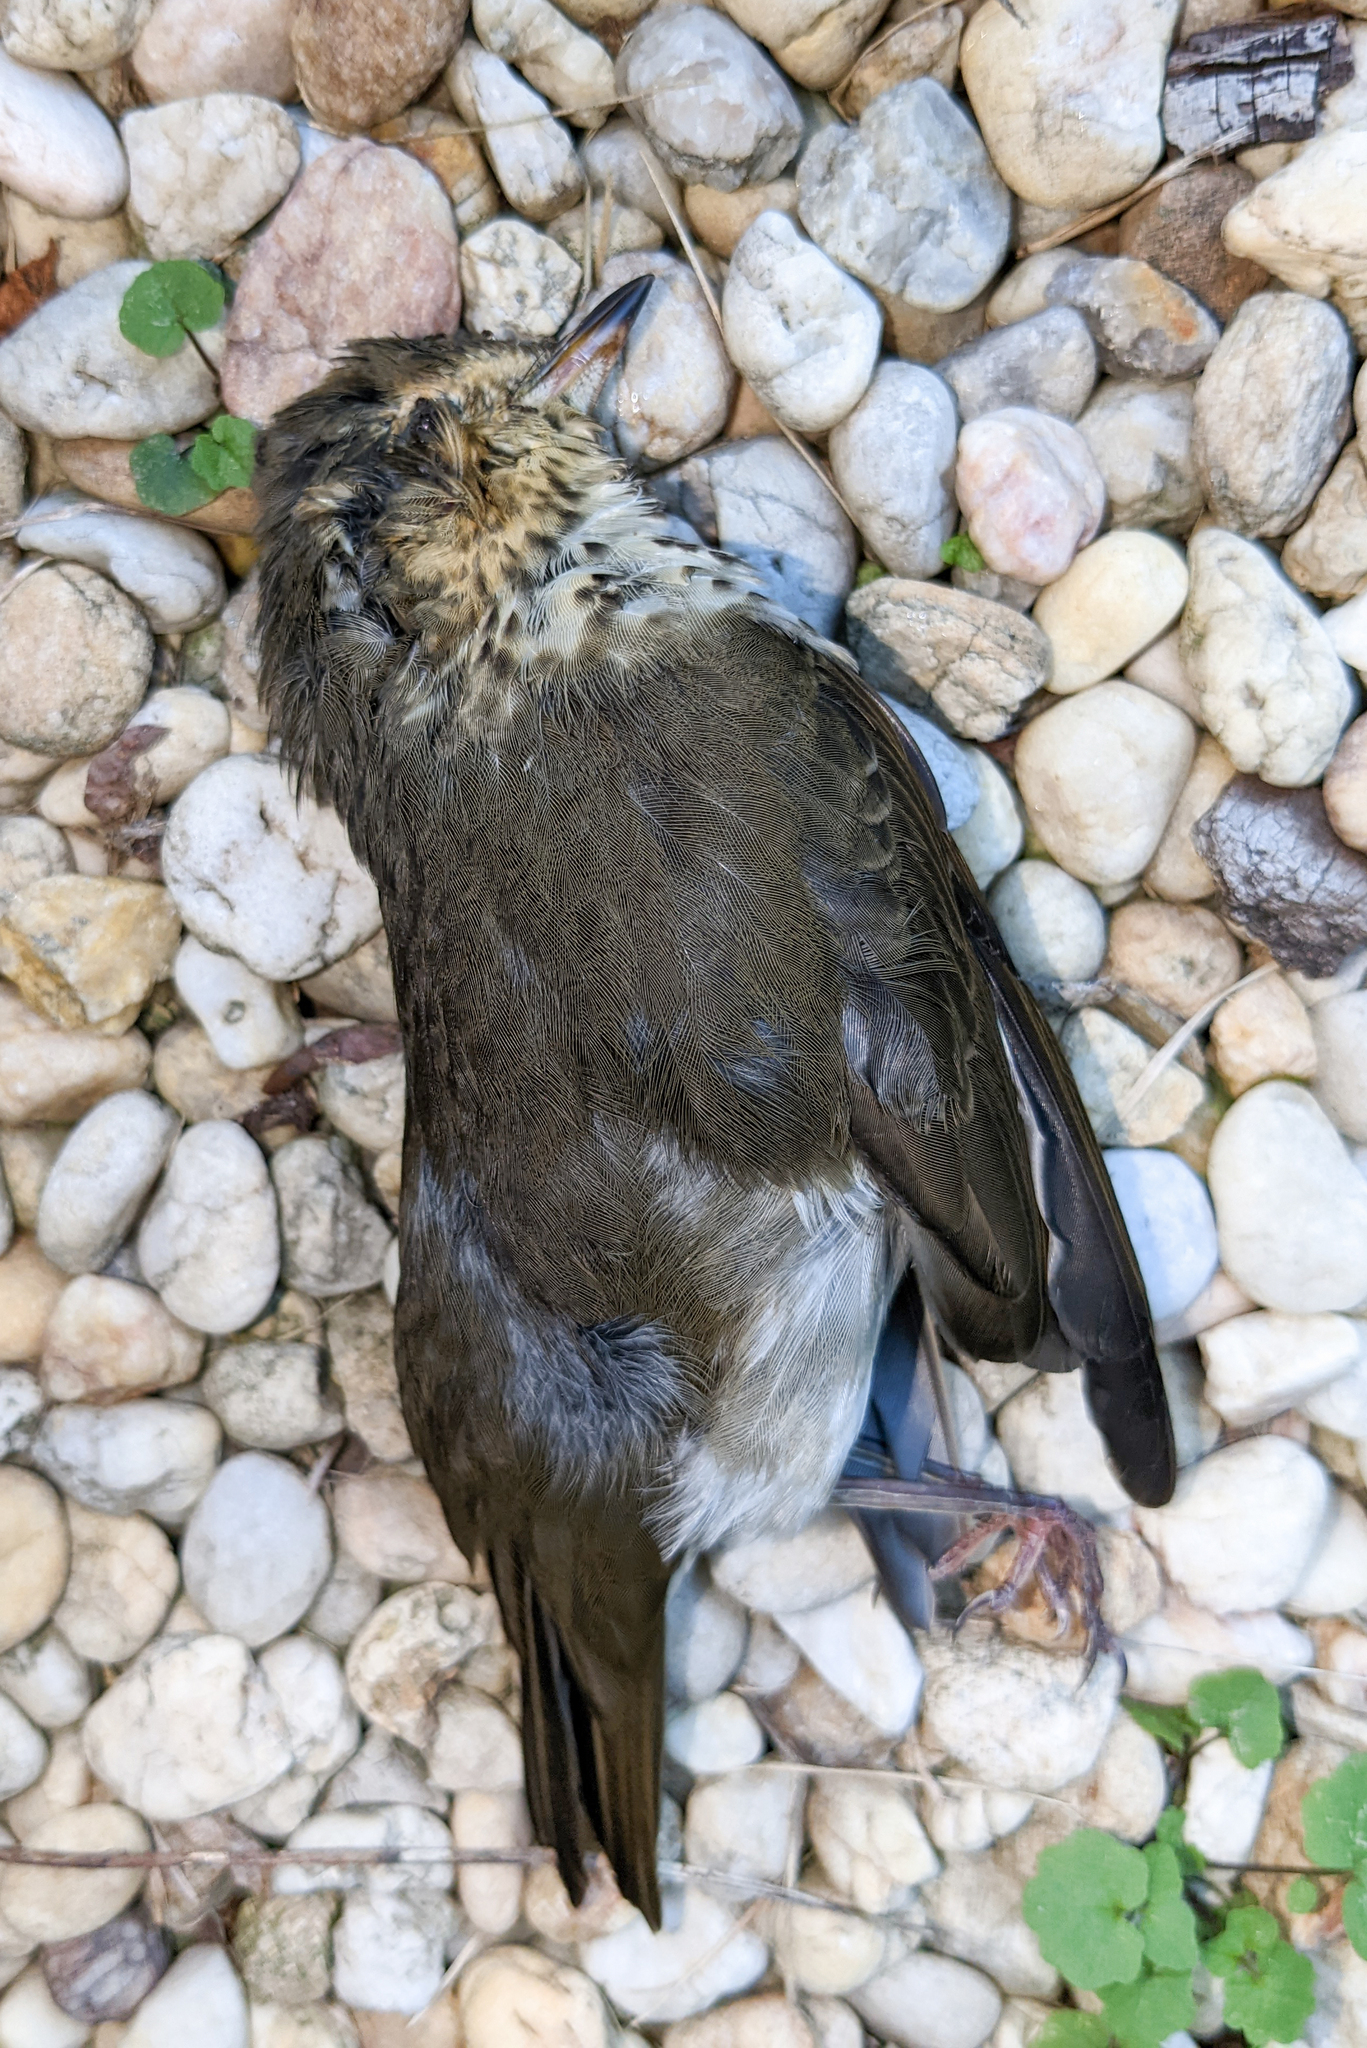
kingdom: Animalia
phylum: Chordata
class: Aves
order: Passeriformes
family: Turdidae
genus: Catharus
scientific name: Catharus ustulatus
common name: Swainson's thrush
